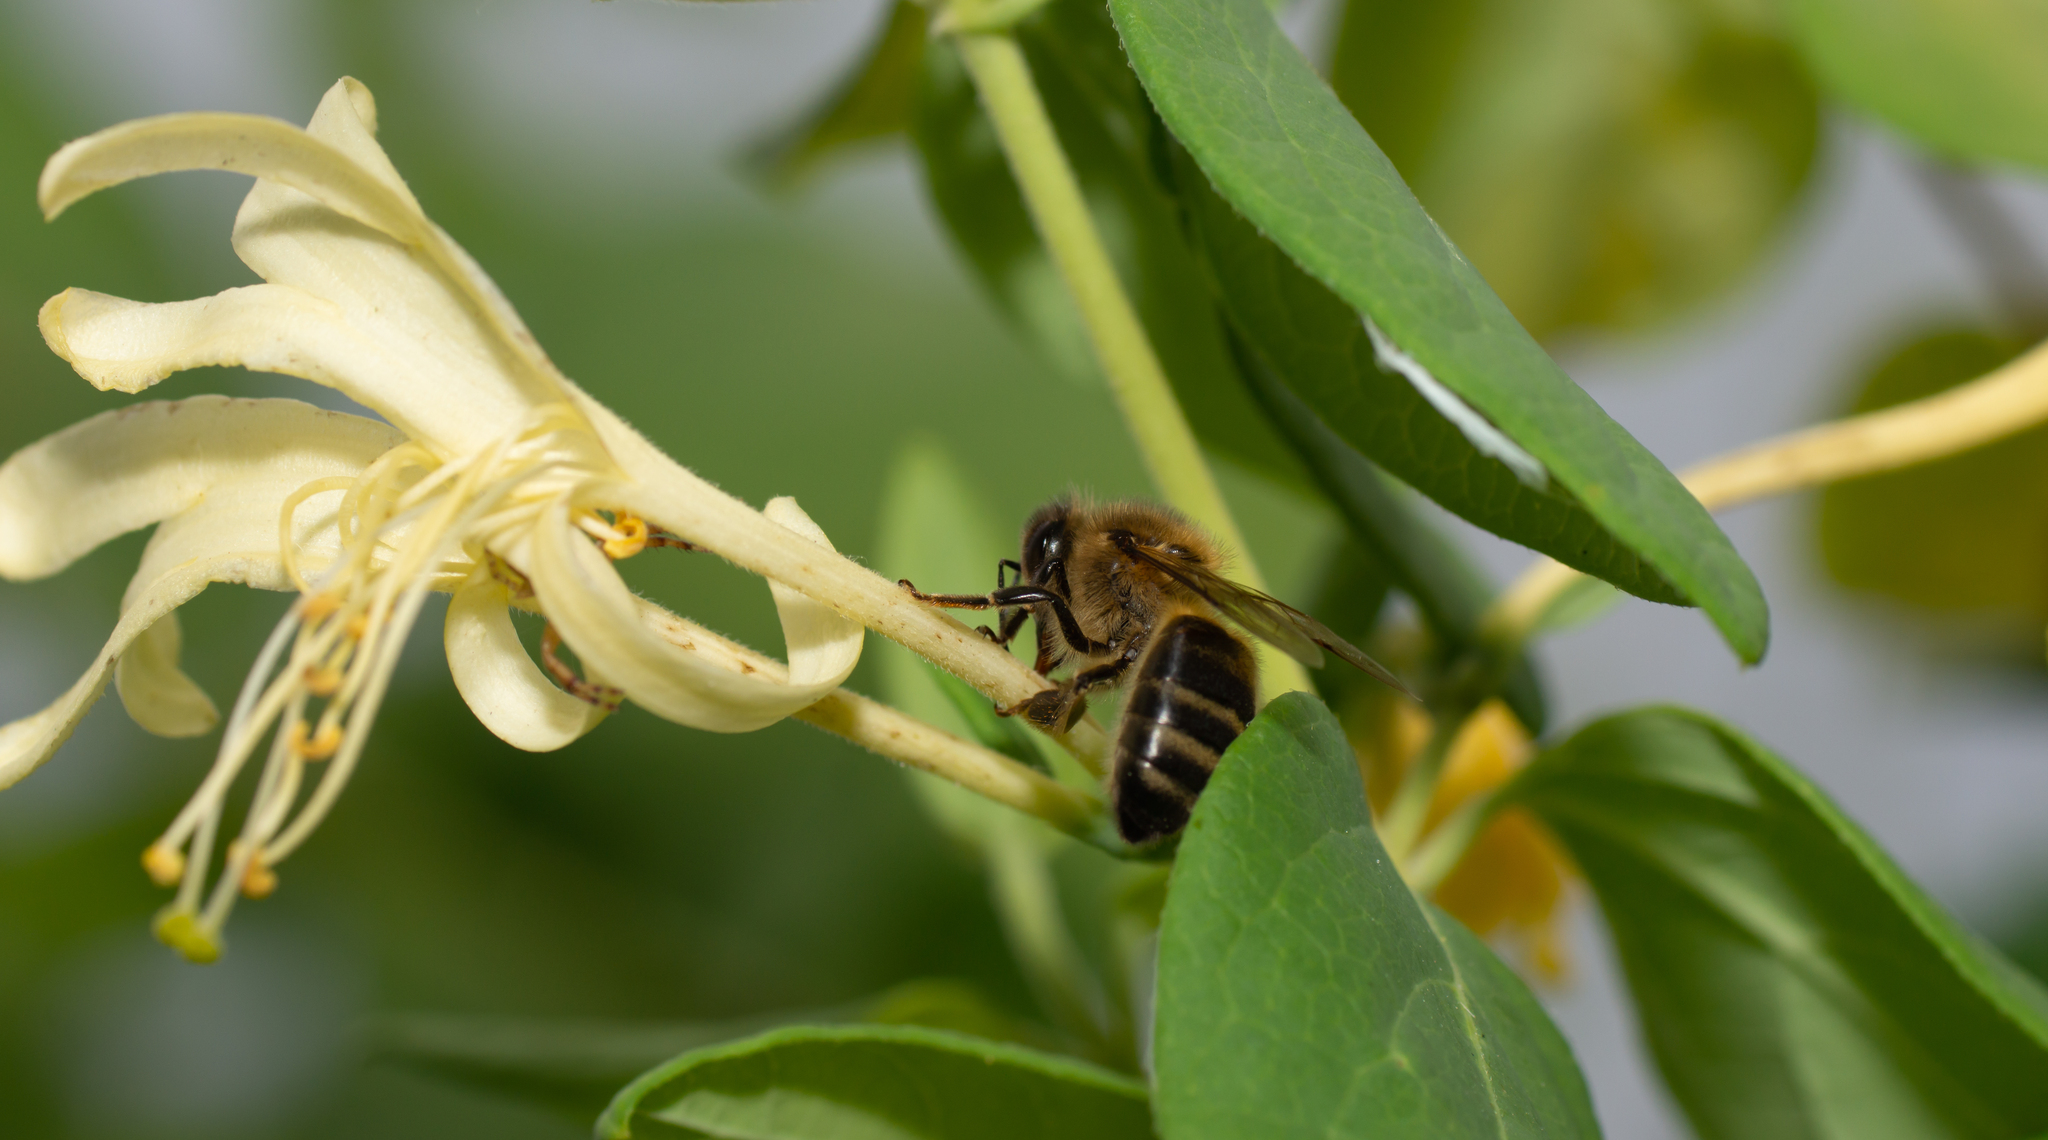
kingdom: Animalia
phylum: Arthropoda
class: Insecta
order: Hymenoptera
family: Apidae
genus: Apis
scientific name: Apis mellifera
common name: Honey bee
